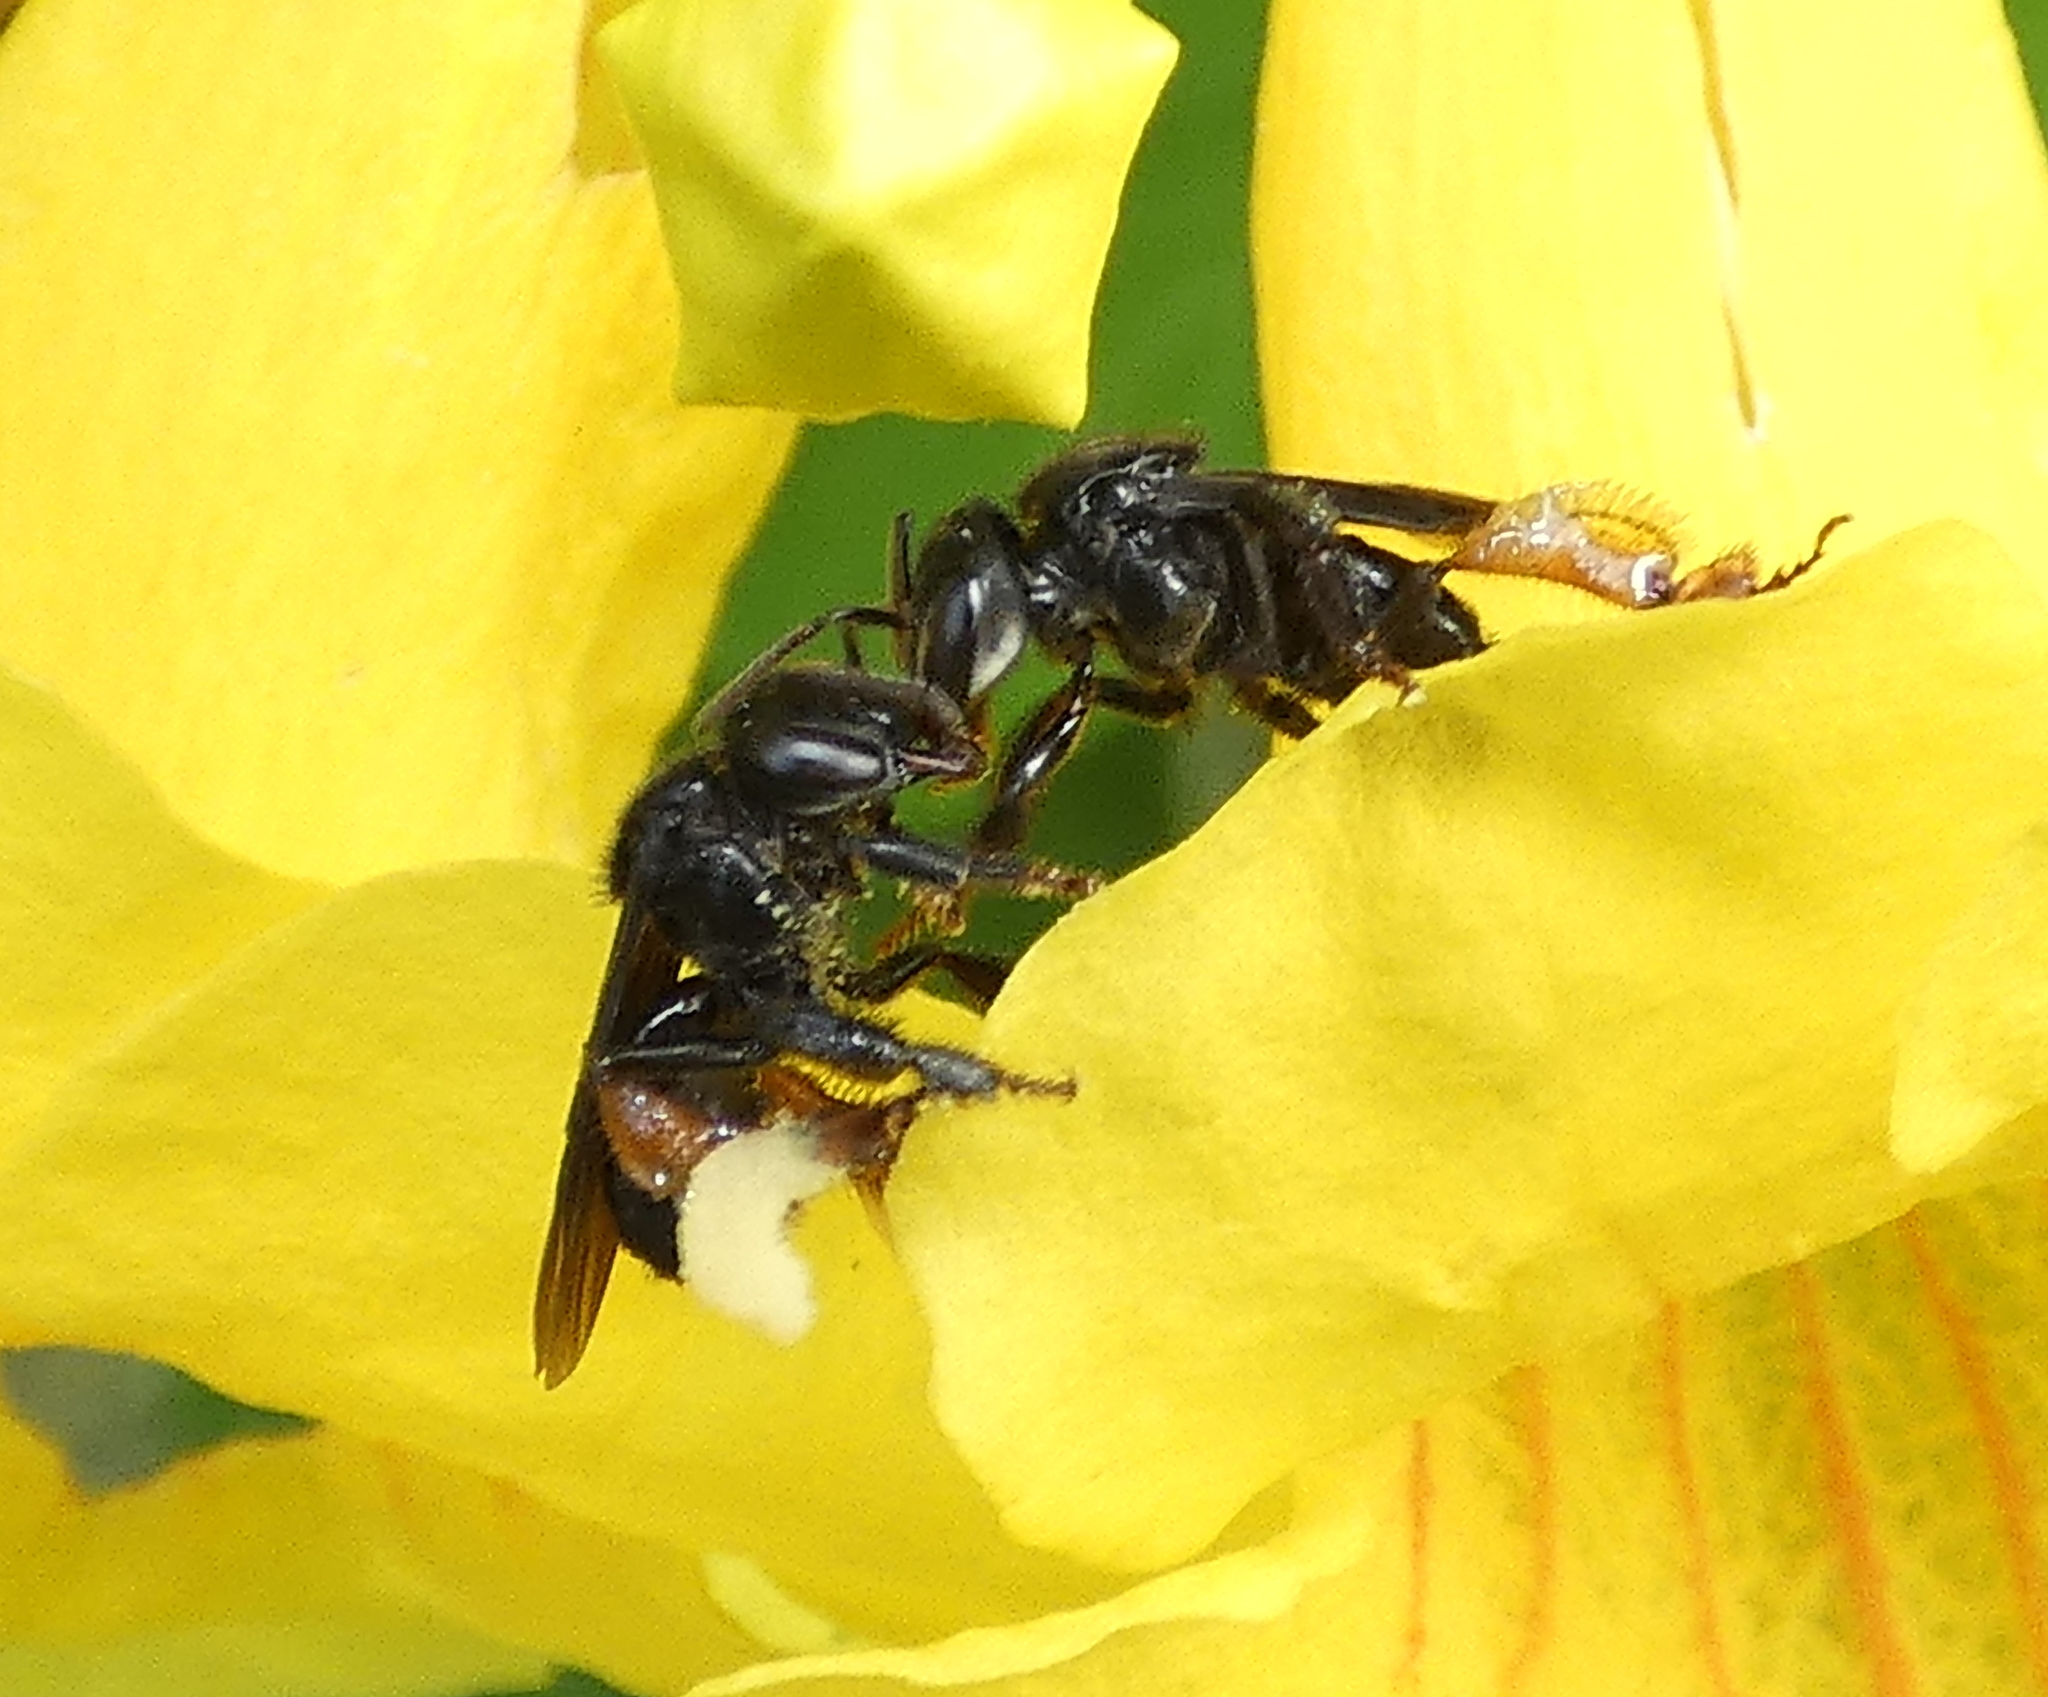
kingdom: Animalia
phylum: Arthropoda
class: Insecta
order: Hymenoptera
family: Apidae
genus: Trigona
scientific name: Trigona spinipes
